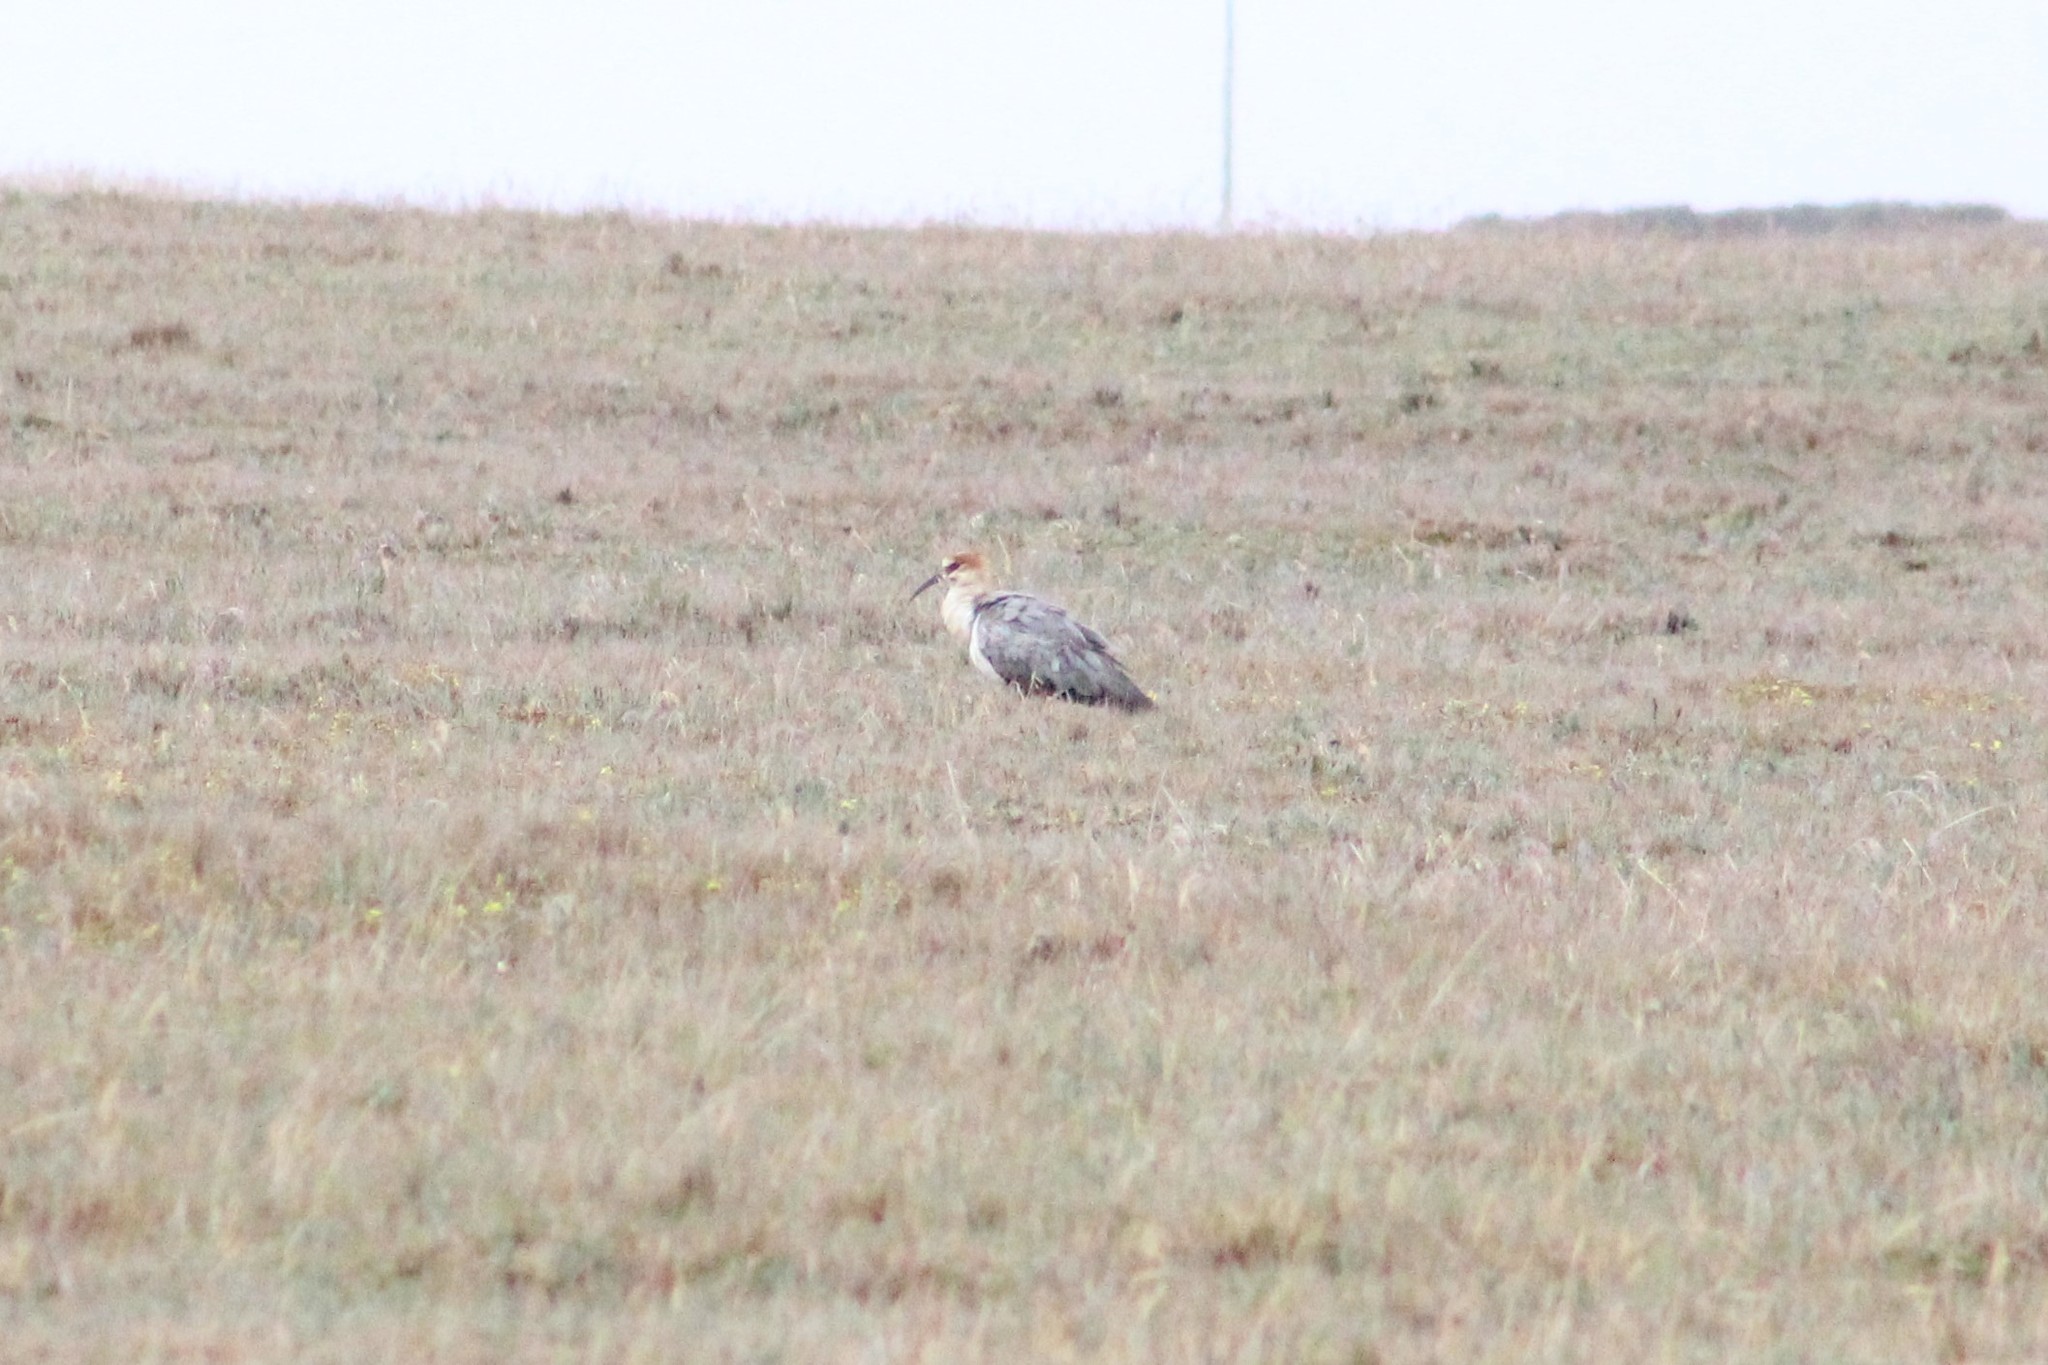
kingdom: Animalia
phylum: Chordata
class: Aves
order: Pelecaniformes
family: Threskiornithidae
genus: Theristicus
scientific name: Theristicus melanopis
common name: Black-faced ibis
